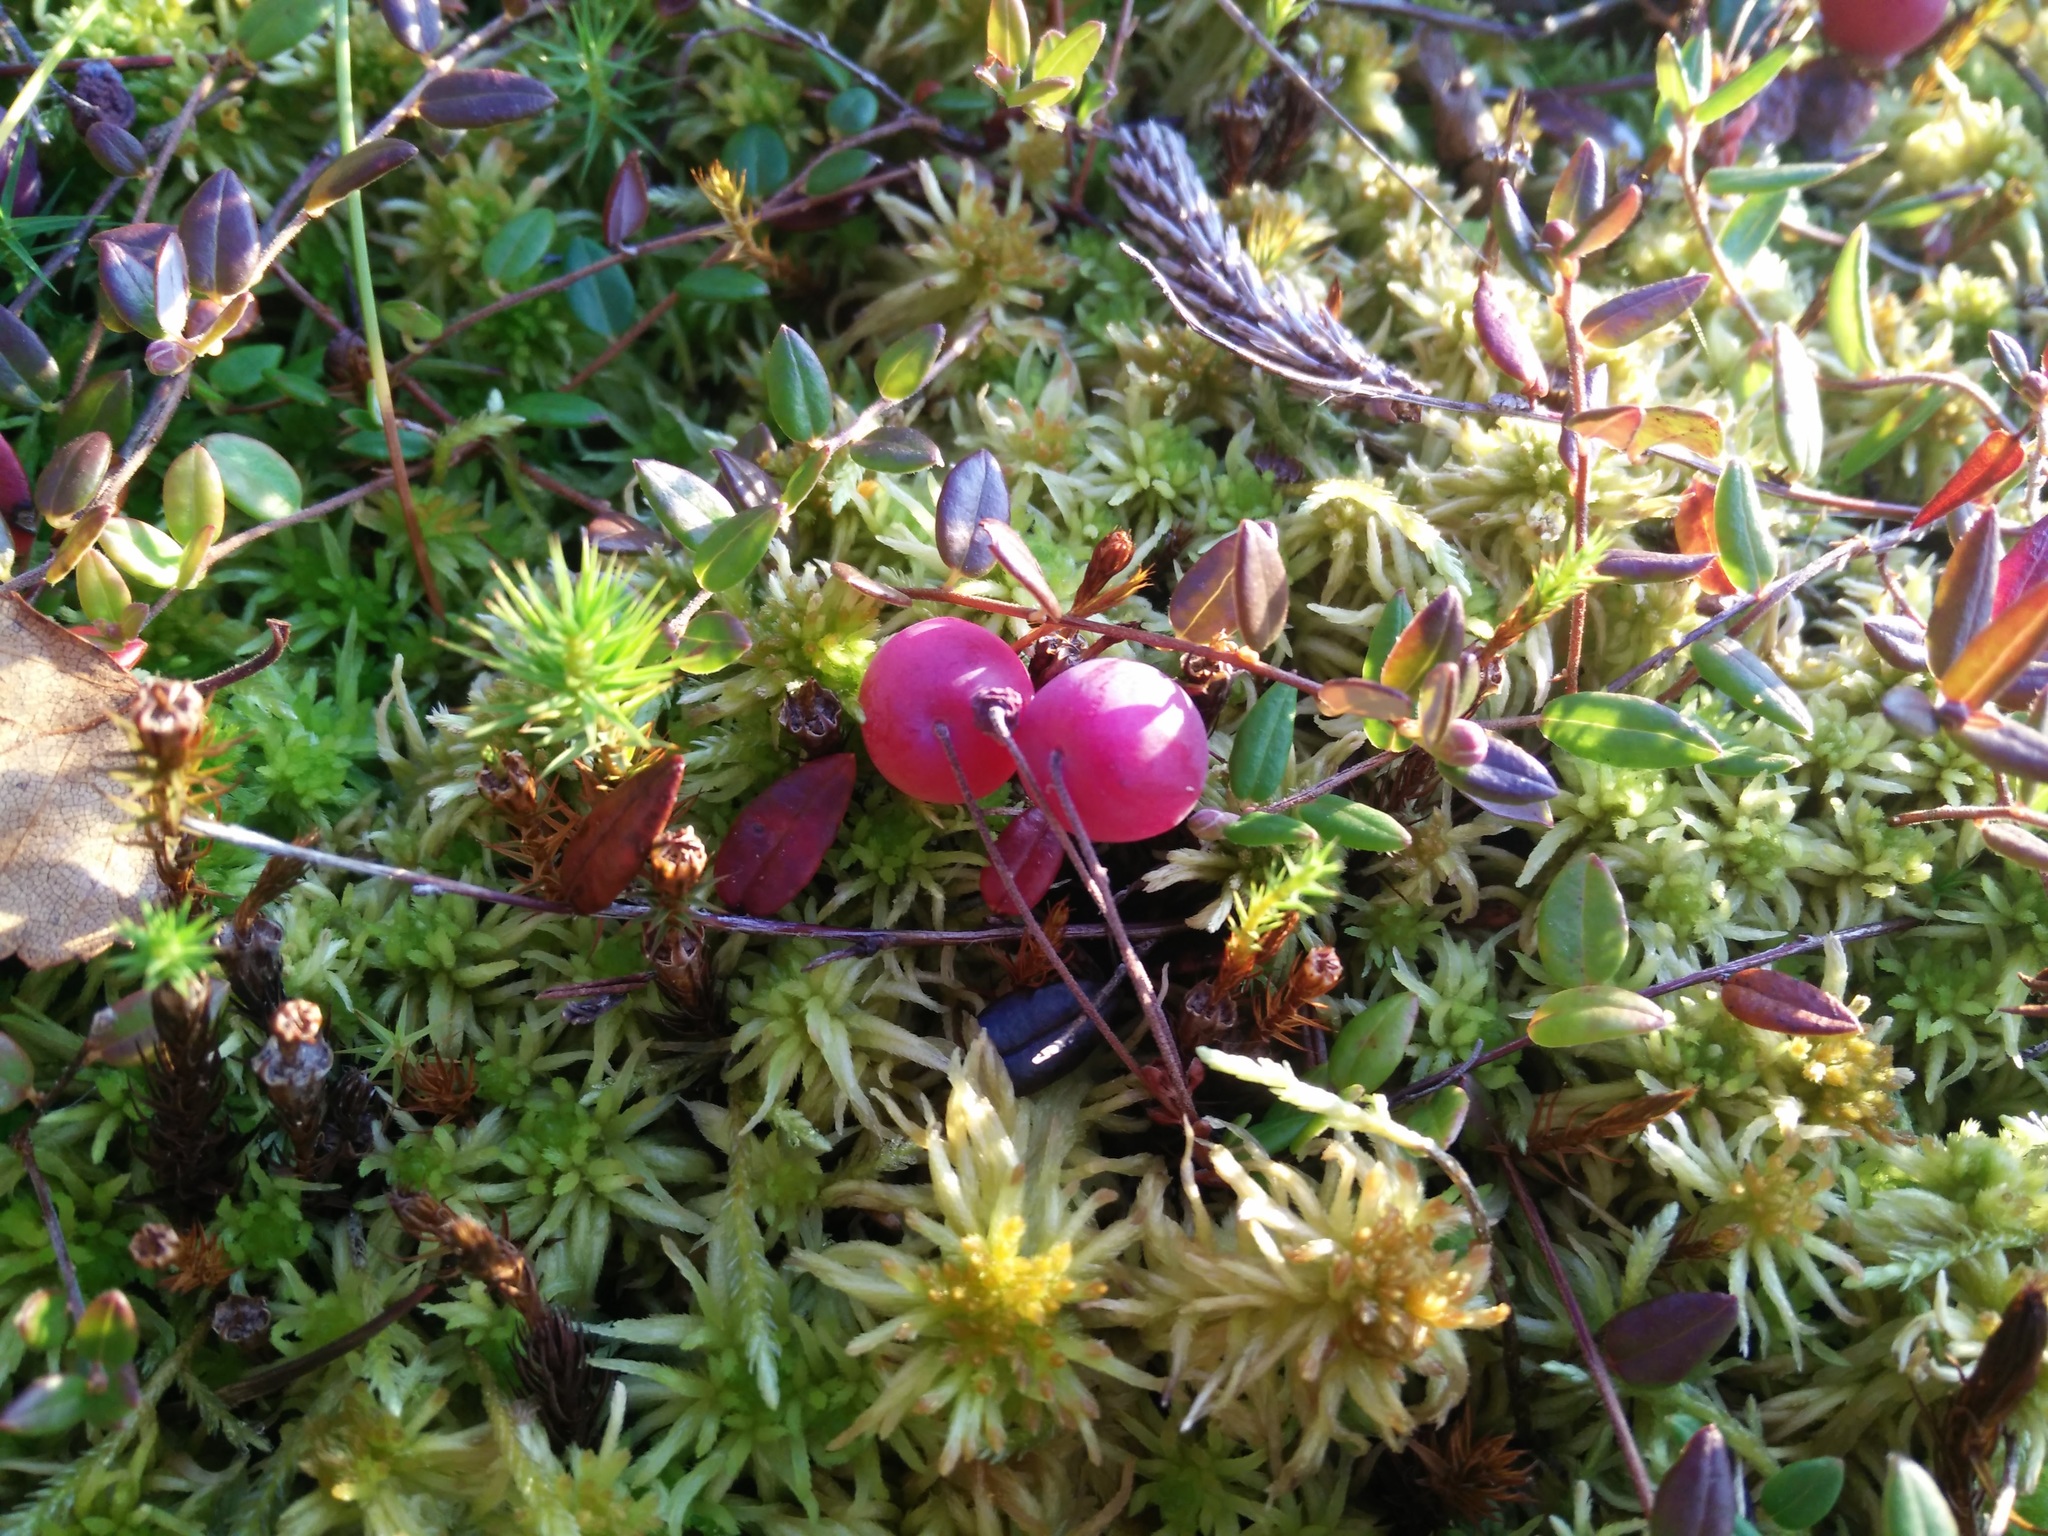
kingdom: Plantae
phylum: Tracheophyta
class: Magnoliopsida
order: Ericales
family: Ericaceae
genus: Vaccinium
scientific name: Vaccinium oxycoccos
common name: Cranberry
